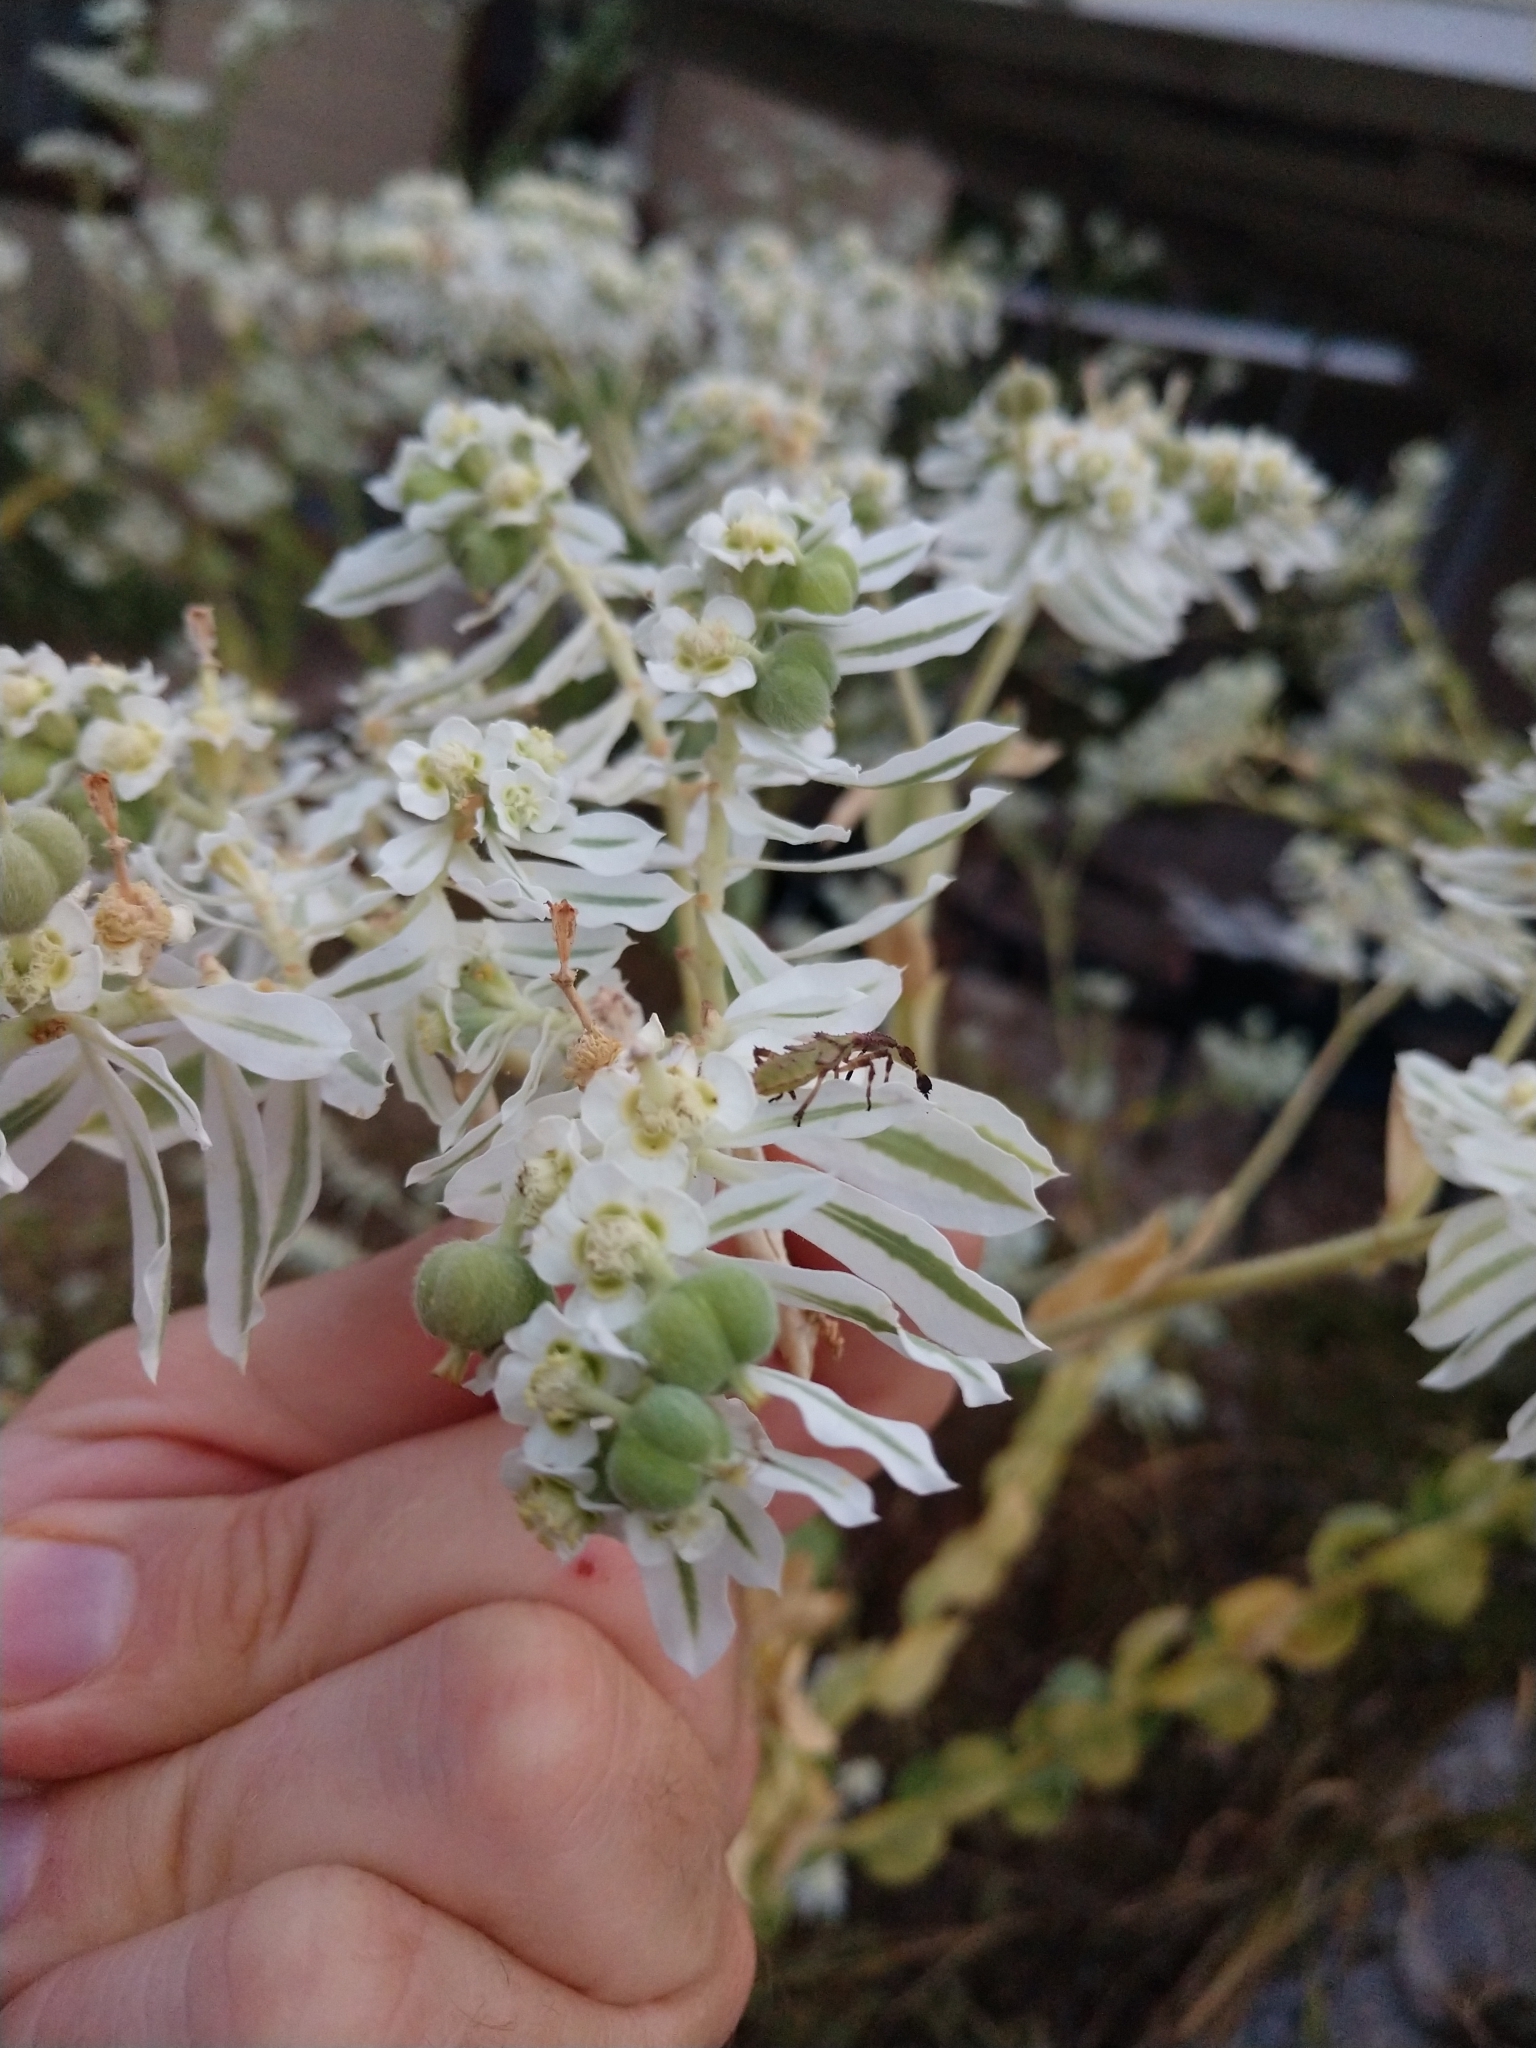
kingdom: Animalia
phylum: Arthropoda
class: Insecta
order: Hemiptera
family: Coreidae
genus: Chariesterus
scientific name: Chariesterus antennator
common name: Flat horned coreid
